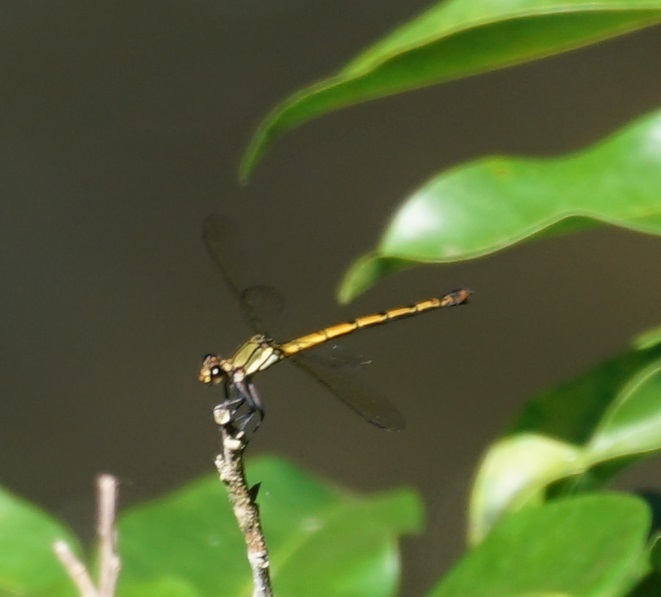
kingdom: Animalia
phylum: Arthropoda
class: Insecta
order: Odonata
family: Lestoideidae
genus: Diphlebia
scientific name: Diphlebia euphoeoides
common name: Tropical rockmaster
